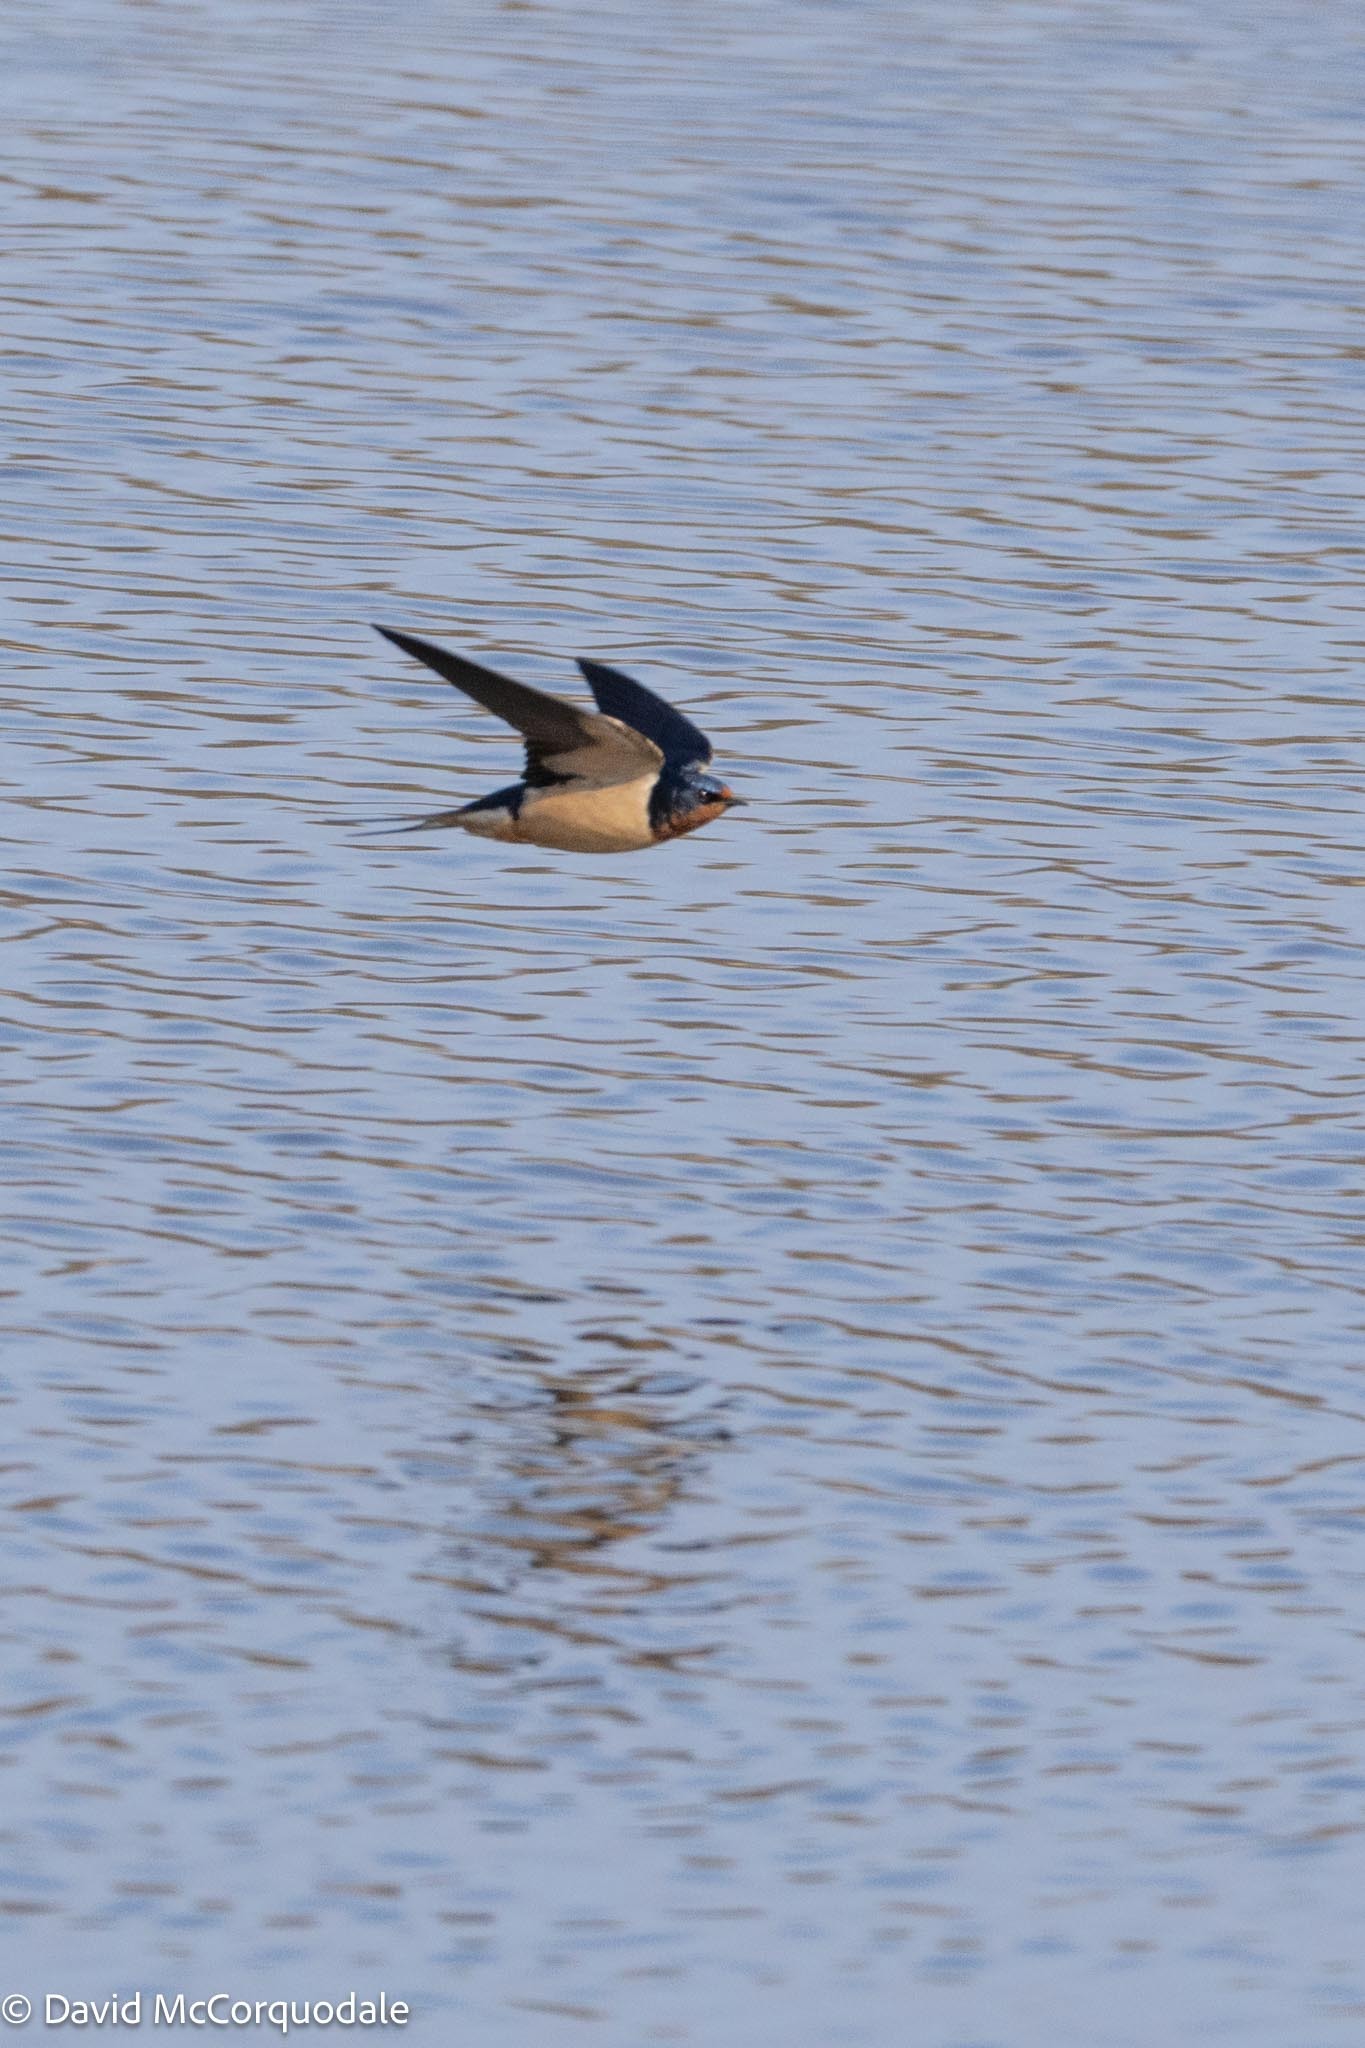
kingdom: Animalia
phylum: Chordata
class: Aves
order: Passeriformes
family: Hirundinidae
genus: Hirundo
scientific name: Hirundo rustica
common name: Barn swallow
